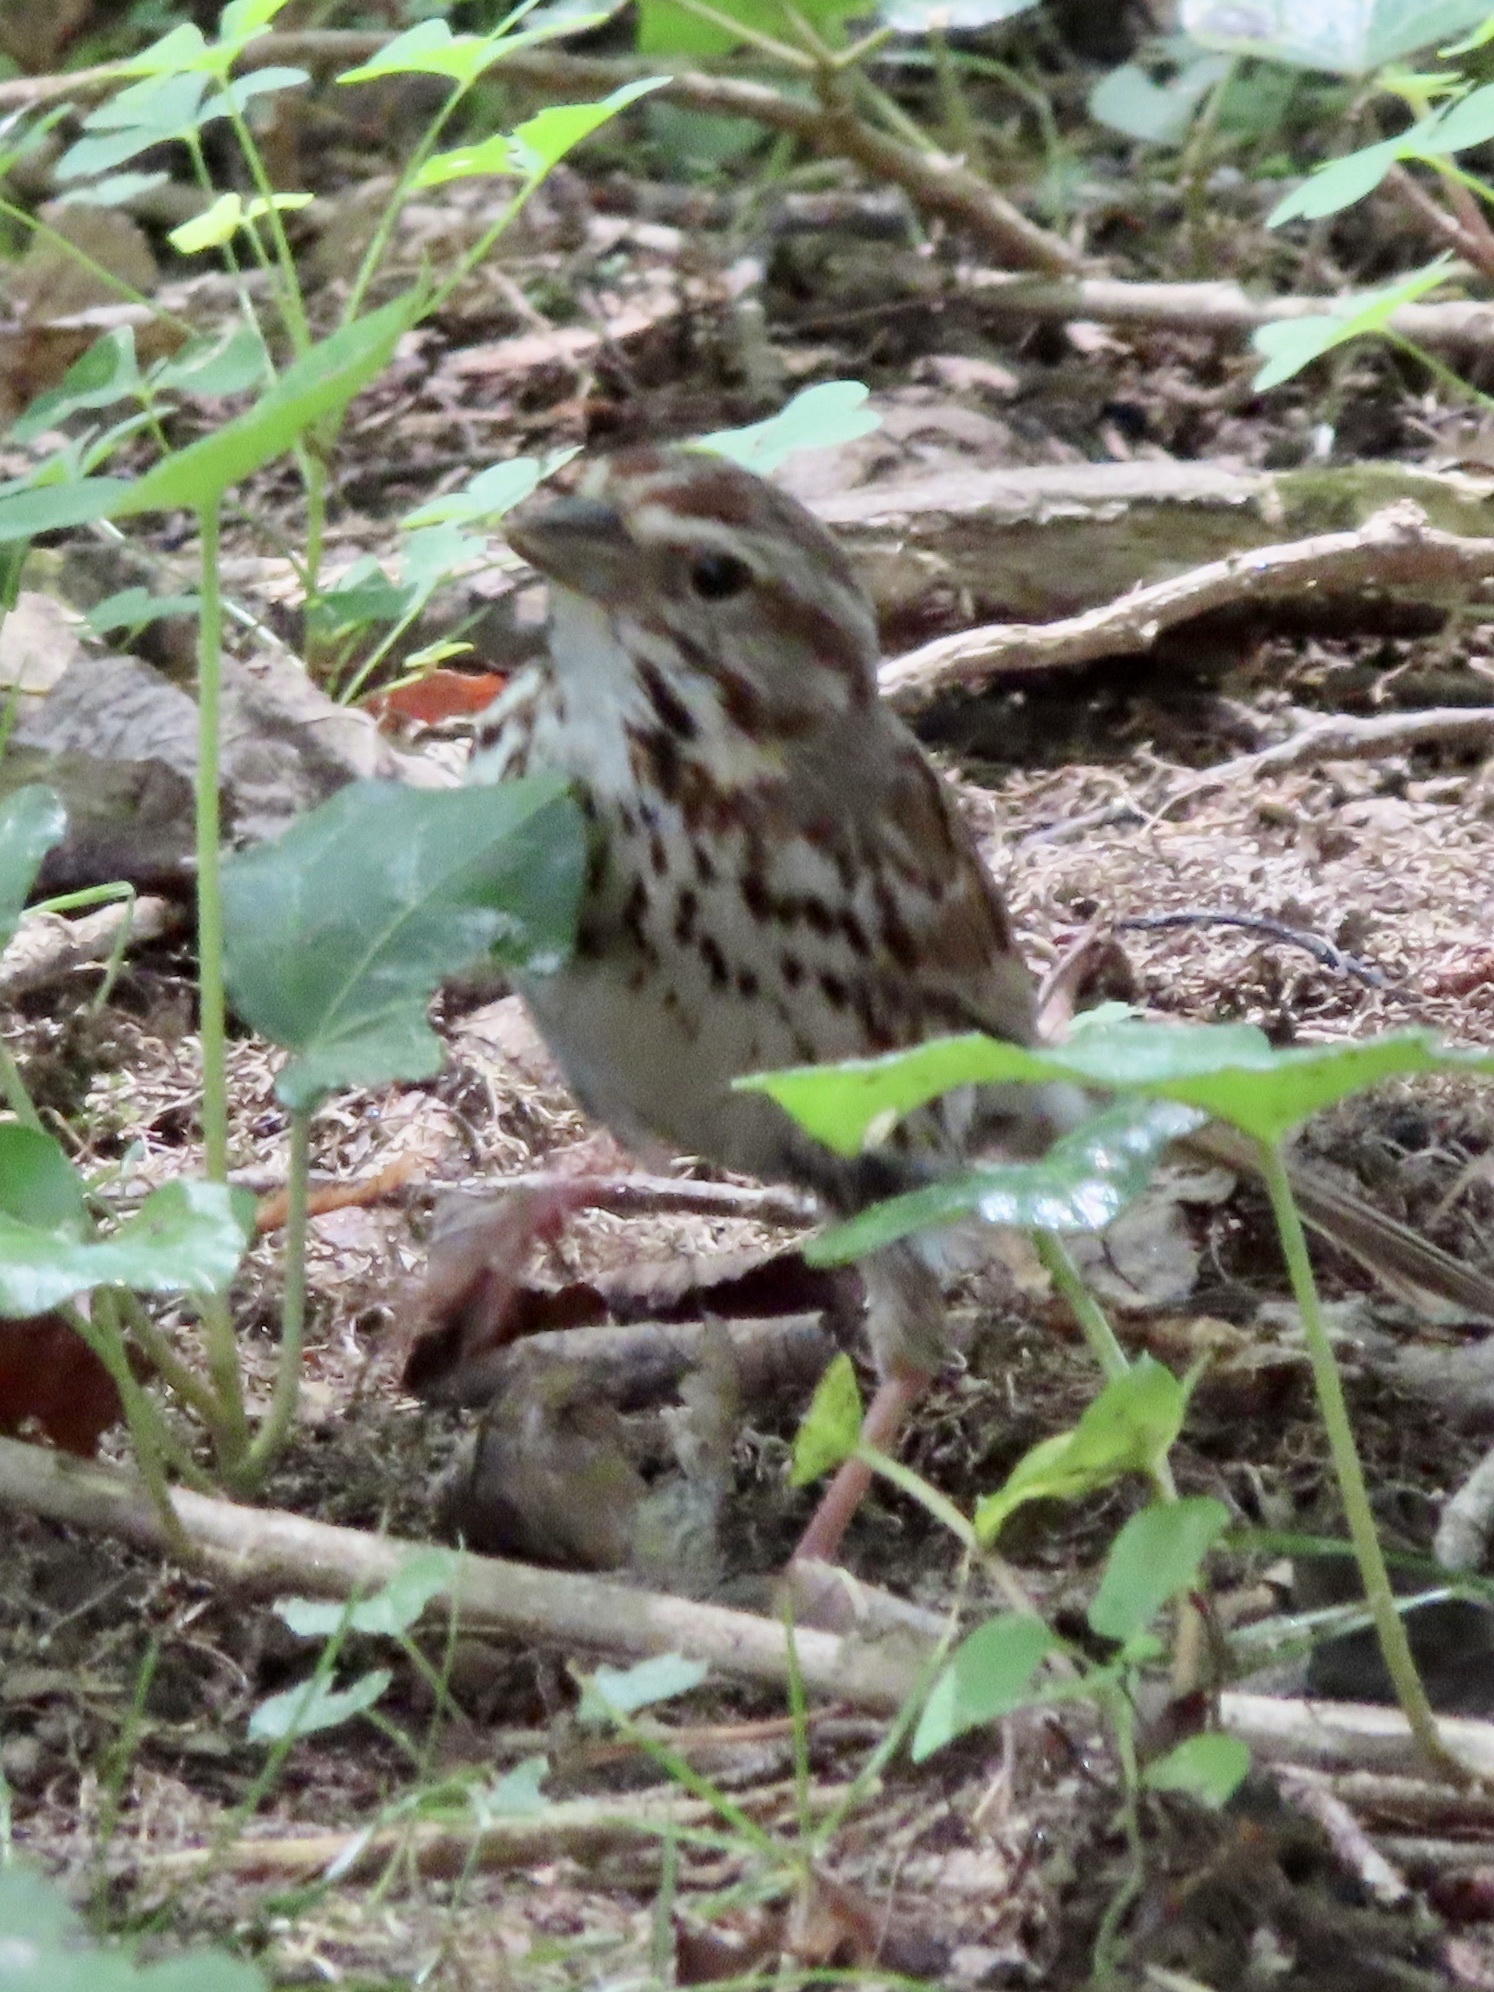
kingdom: Animalia
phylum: Chordata
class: Aves
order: Passeriformes
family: Passerellidae
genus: Melospiza
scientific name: Melospiza melodia
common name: Song sparrow
